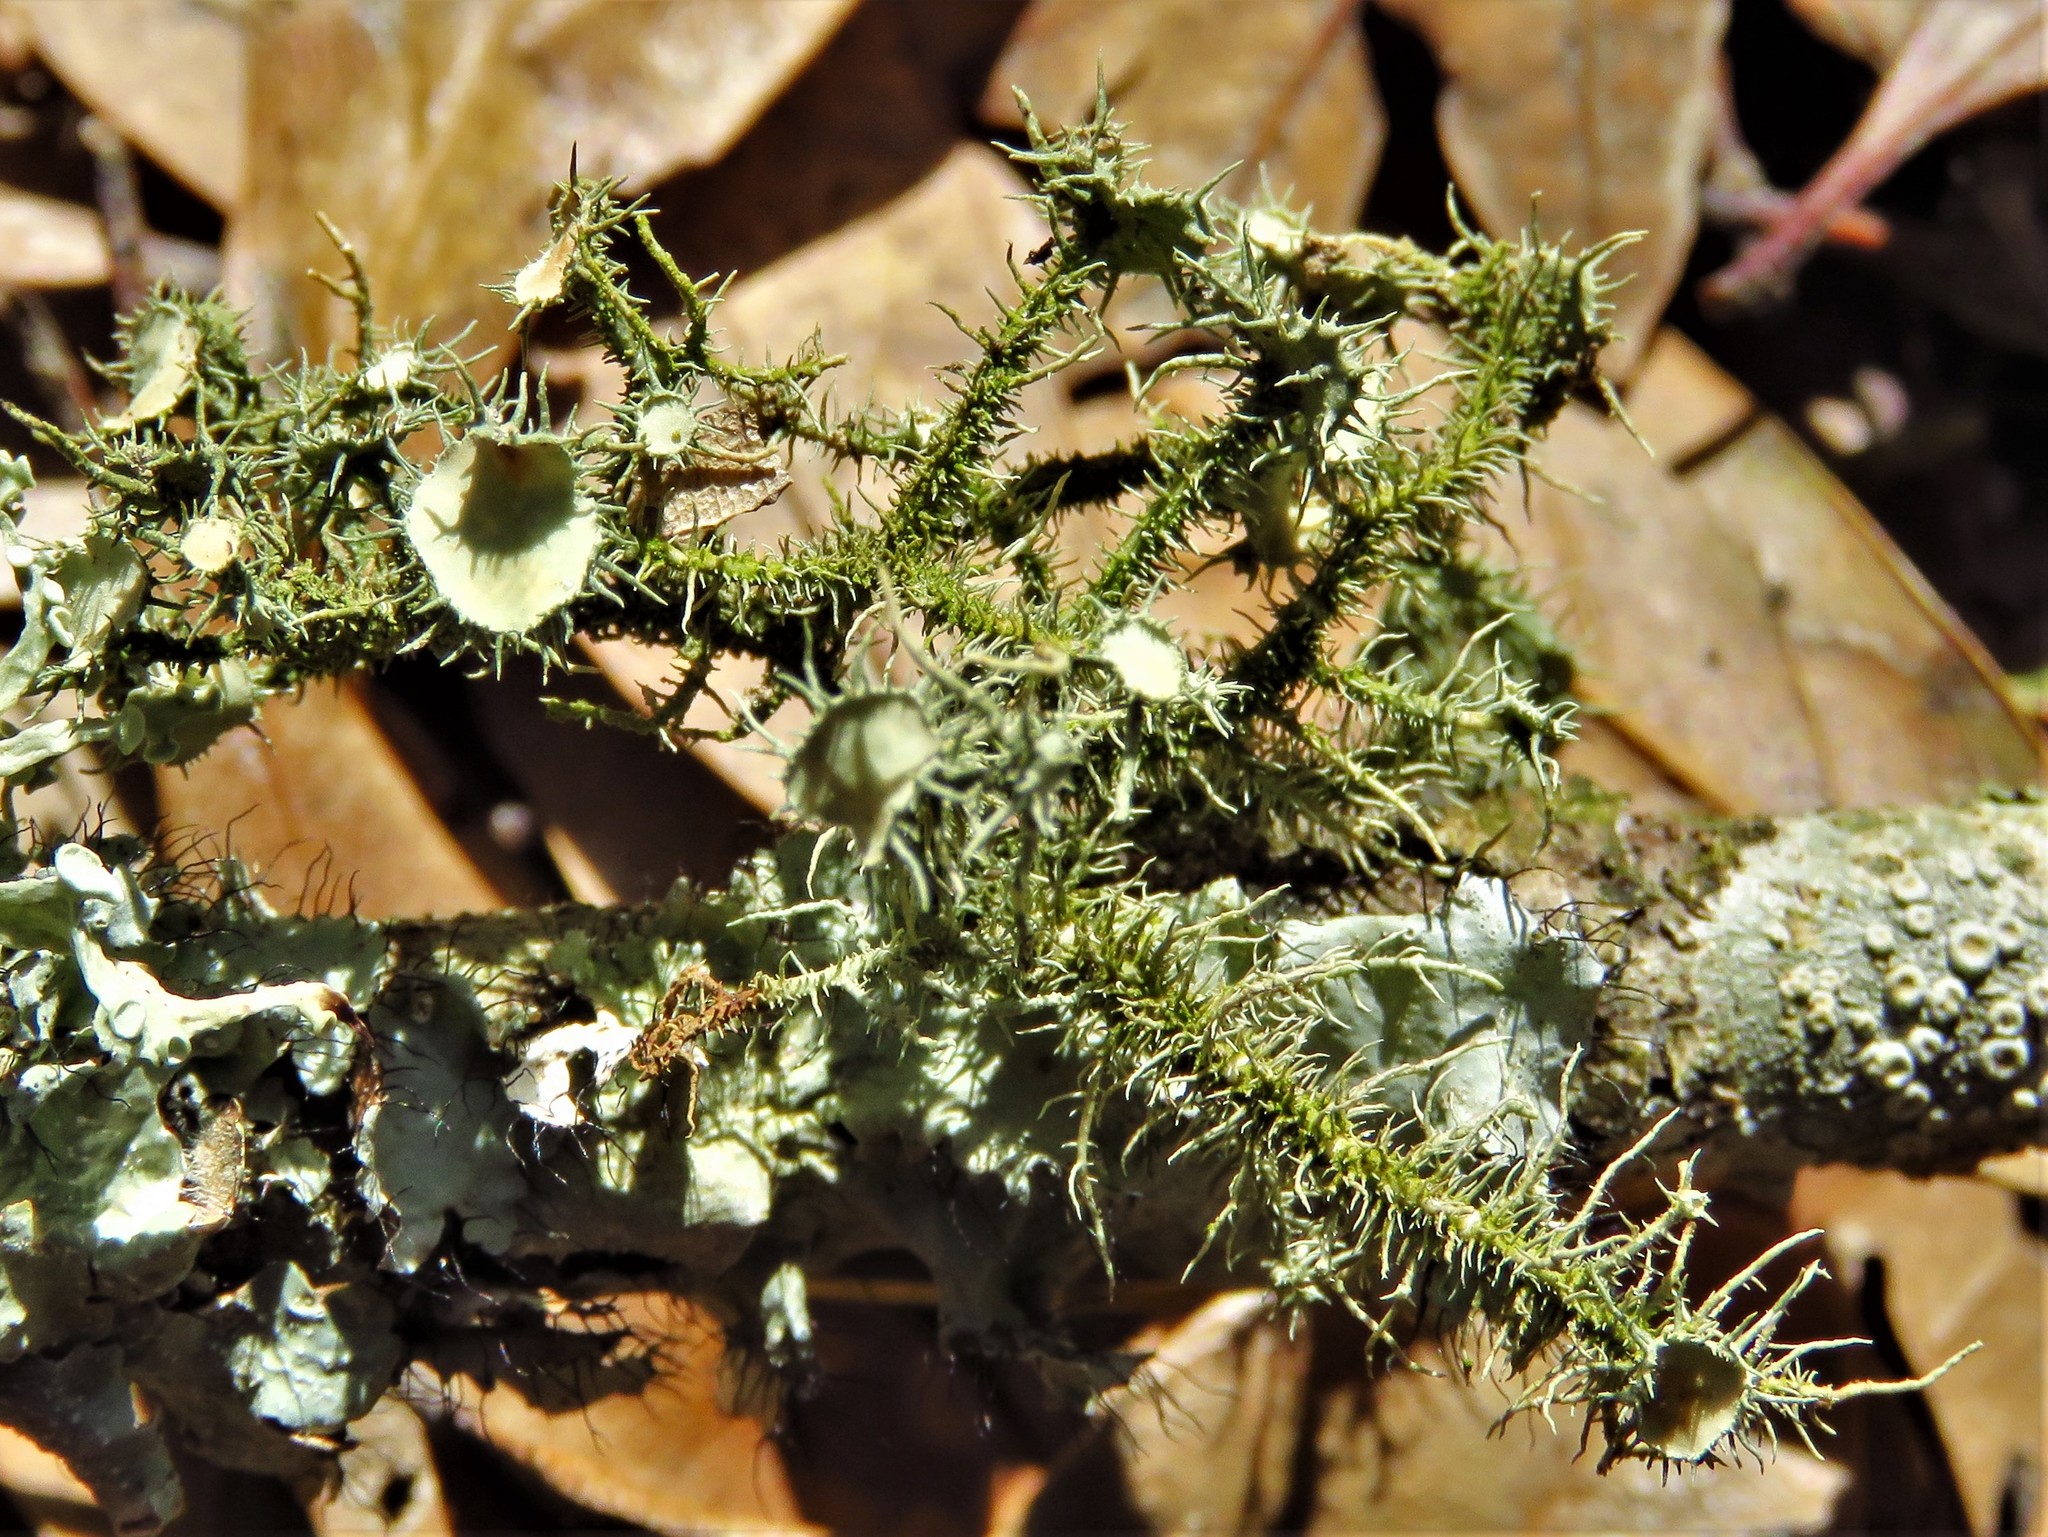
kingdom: Fungi
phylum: Ascomycota
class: Lecanoromycetes
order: Lecanorales
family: Parmeliaceae
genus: Usnea
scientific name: Usnea strigosa
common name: Bushy beard lichen
